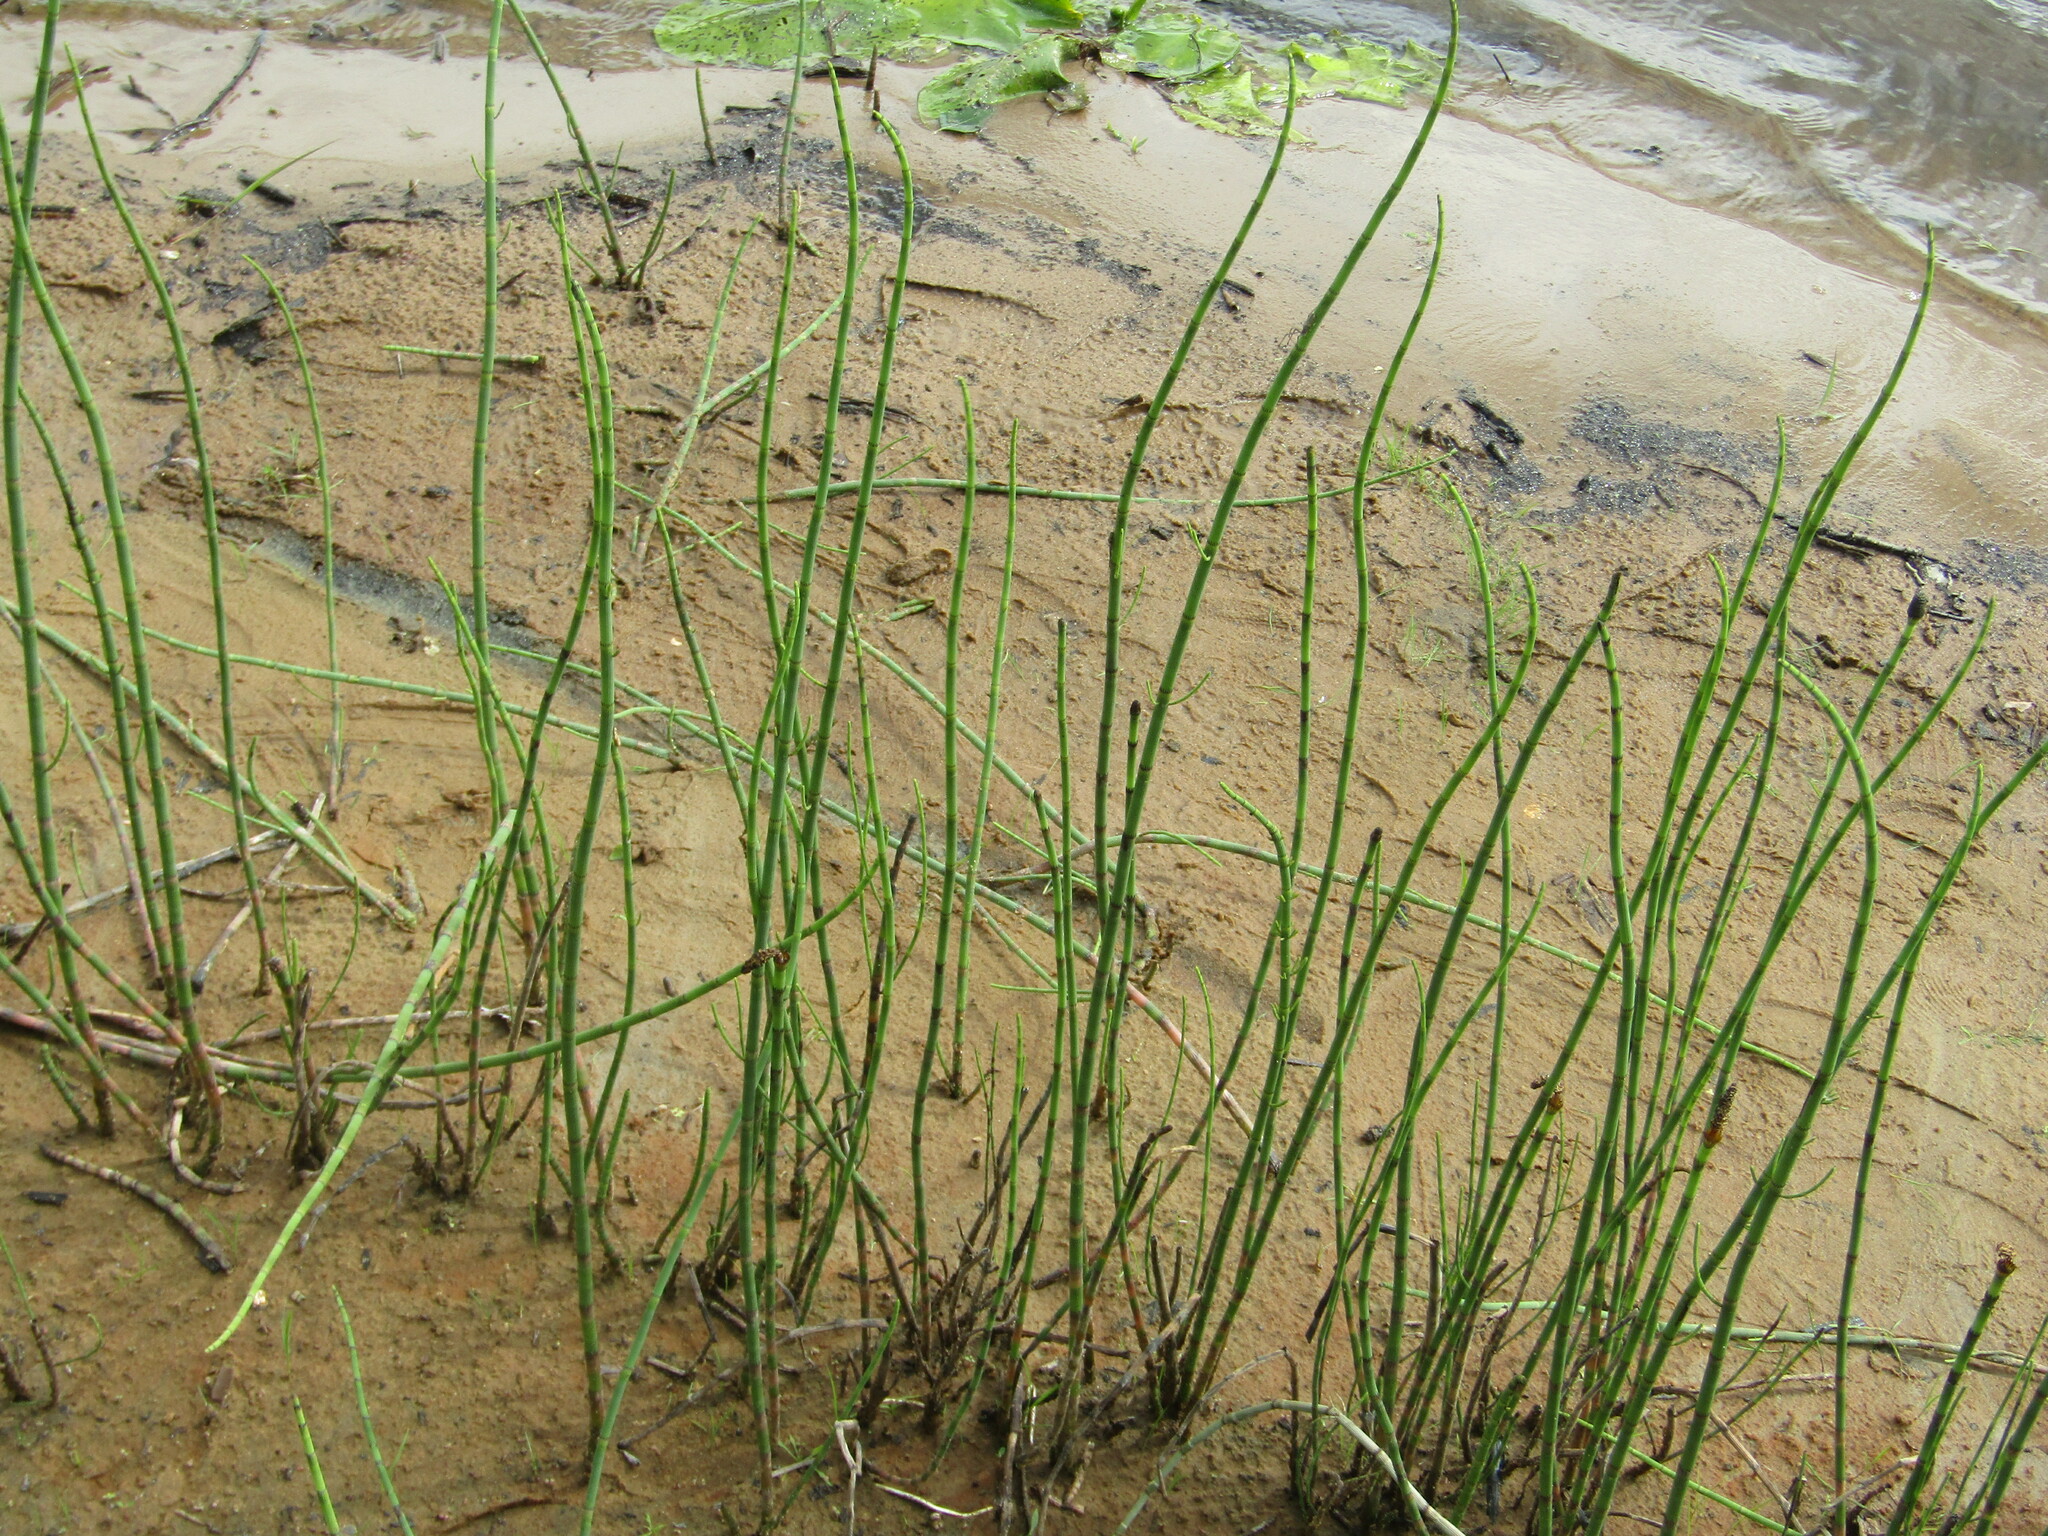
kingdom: Plantae
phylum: Tracheophyta
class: Polypodiopsida
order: Equisetales
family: Equisetaceae
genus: Equisetum
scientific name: Equisetum fluviatile
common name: Water horsetail
